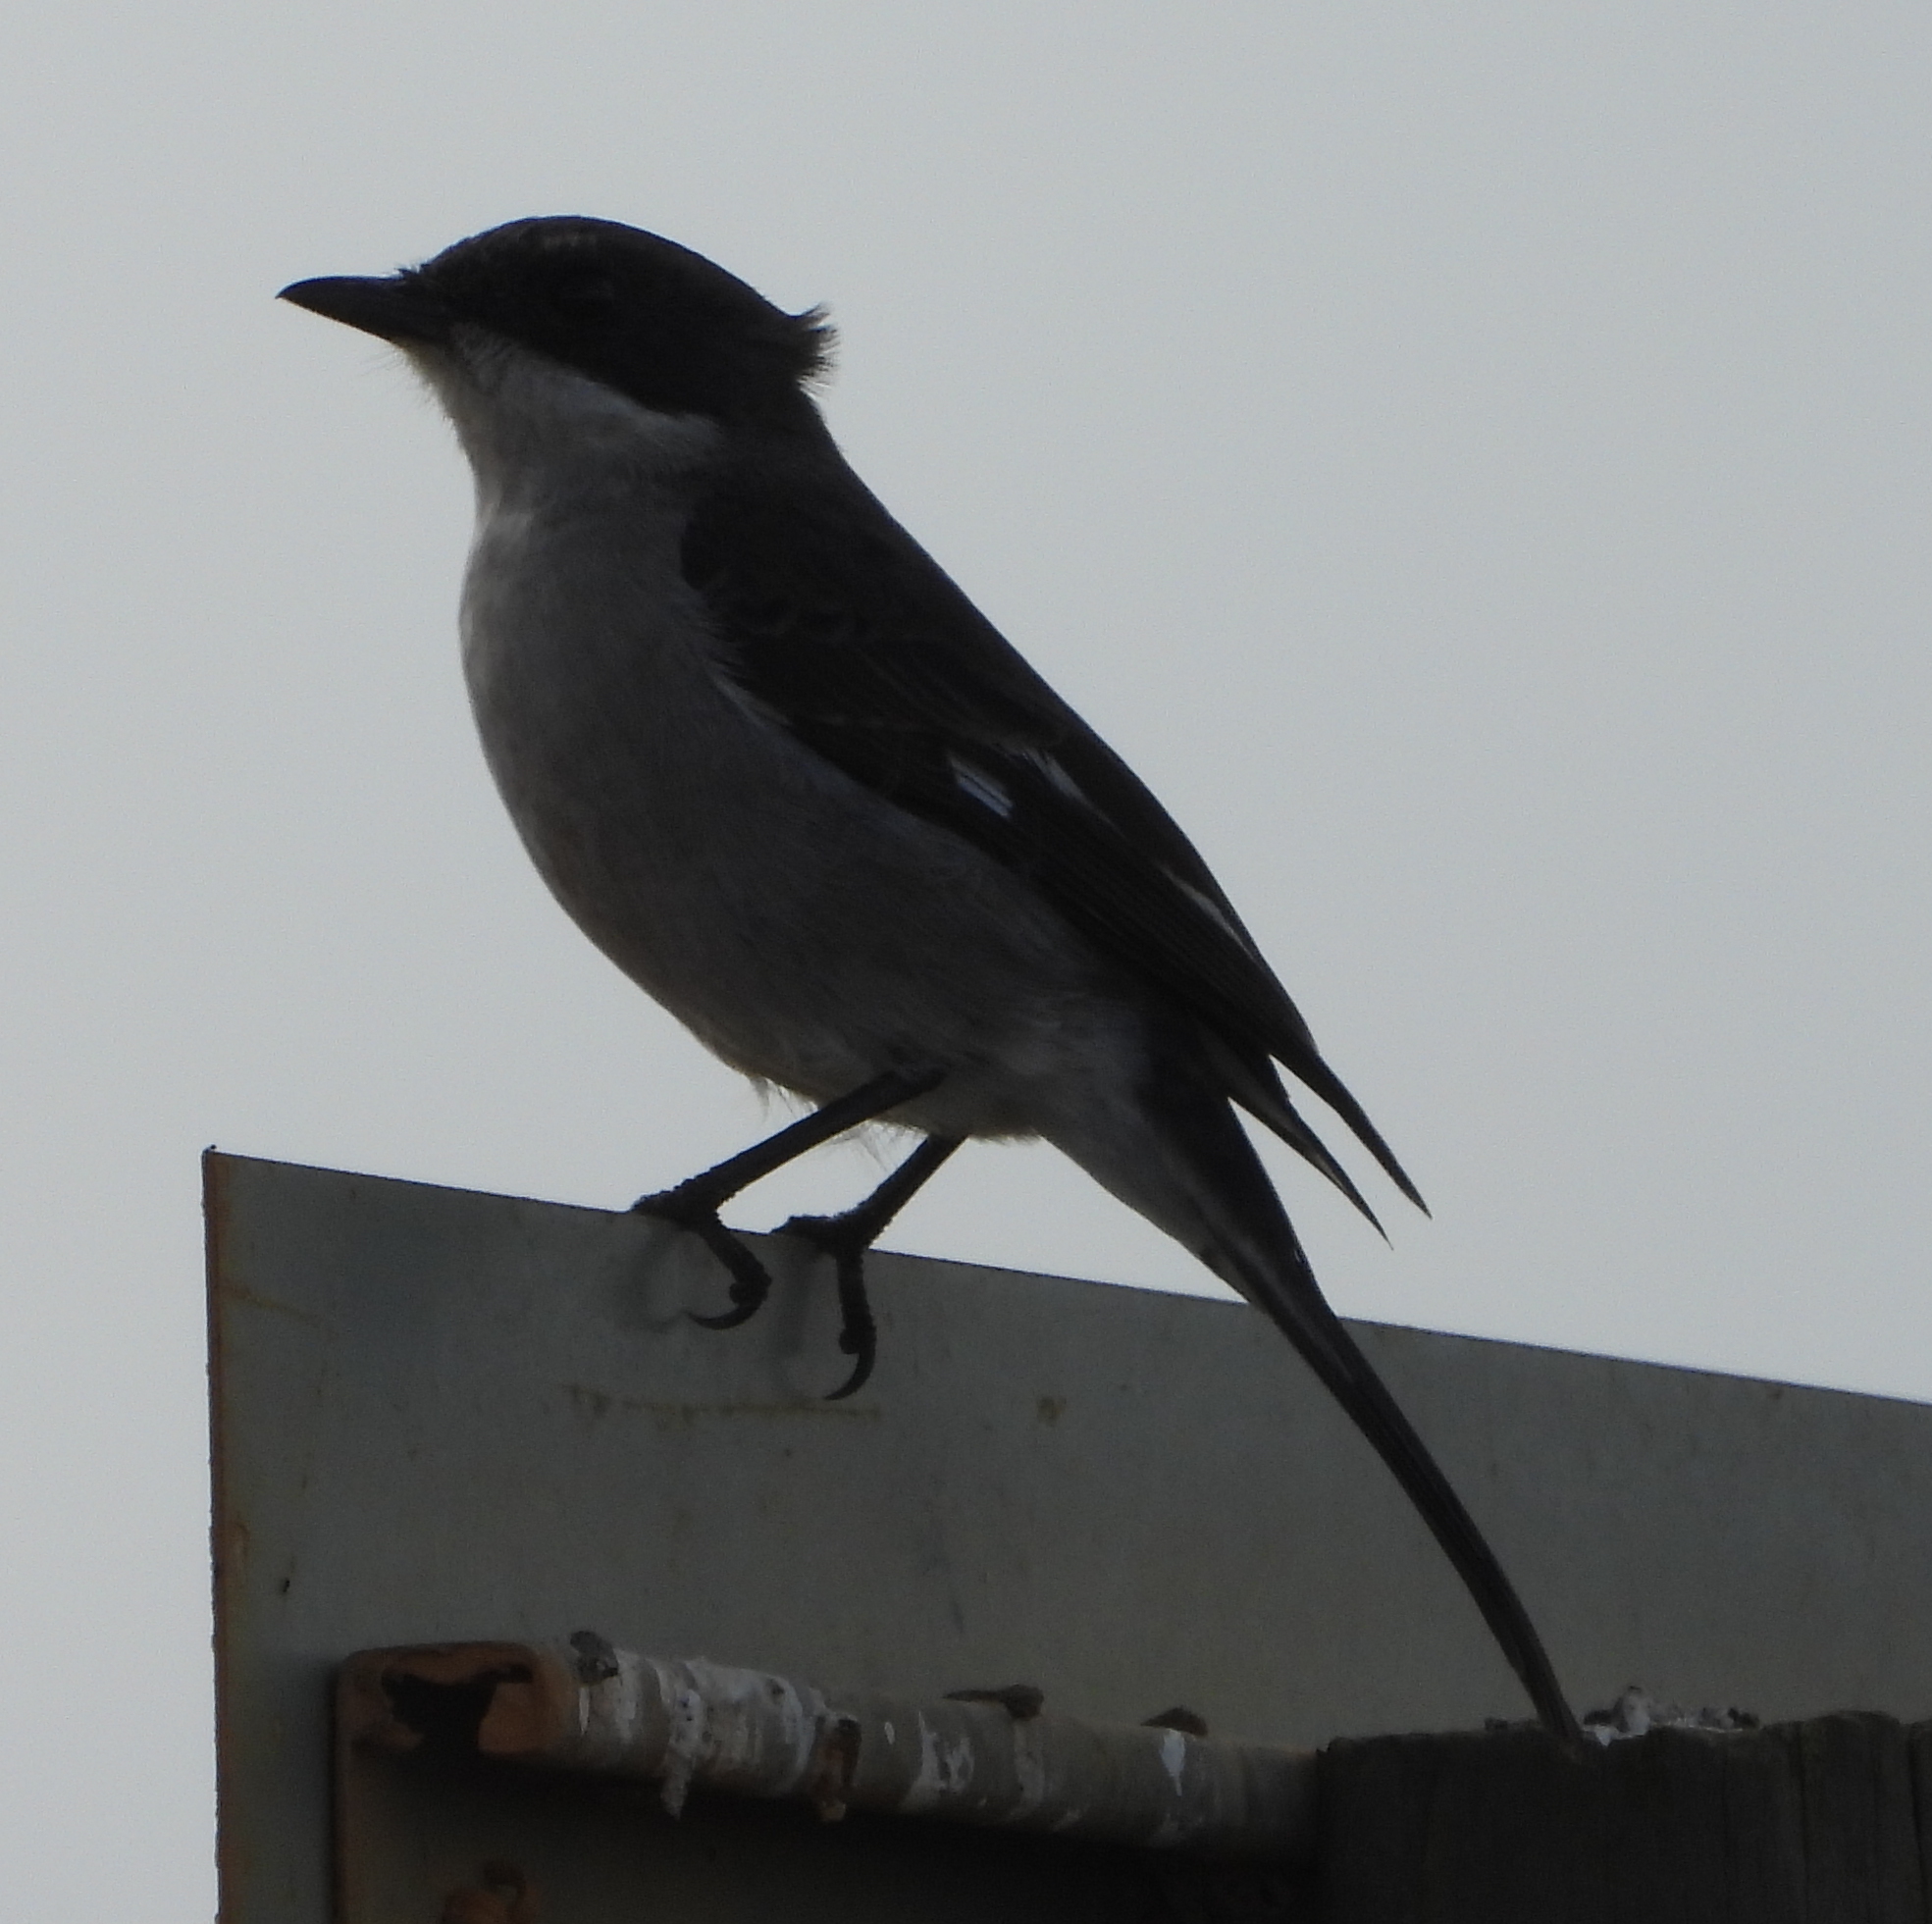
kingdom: Animalia
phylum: Chordata
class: Aves
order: Passeriformes
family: Muscicapidae
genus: Sigelus
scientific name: Sigelus silens
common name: Fiscal flycatcher
